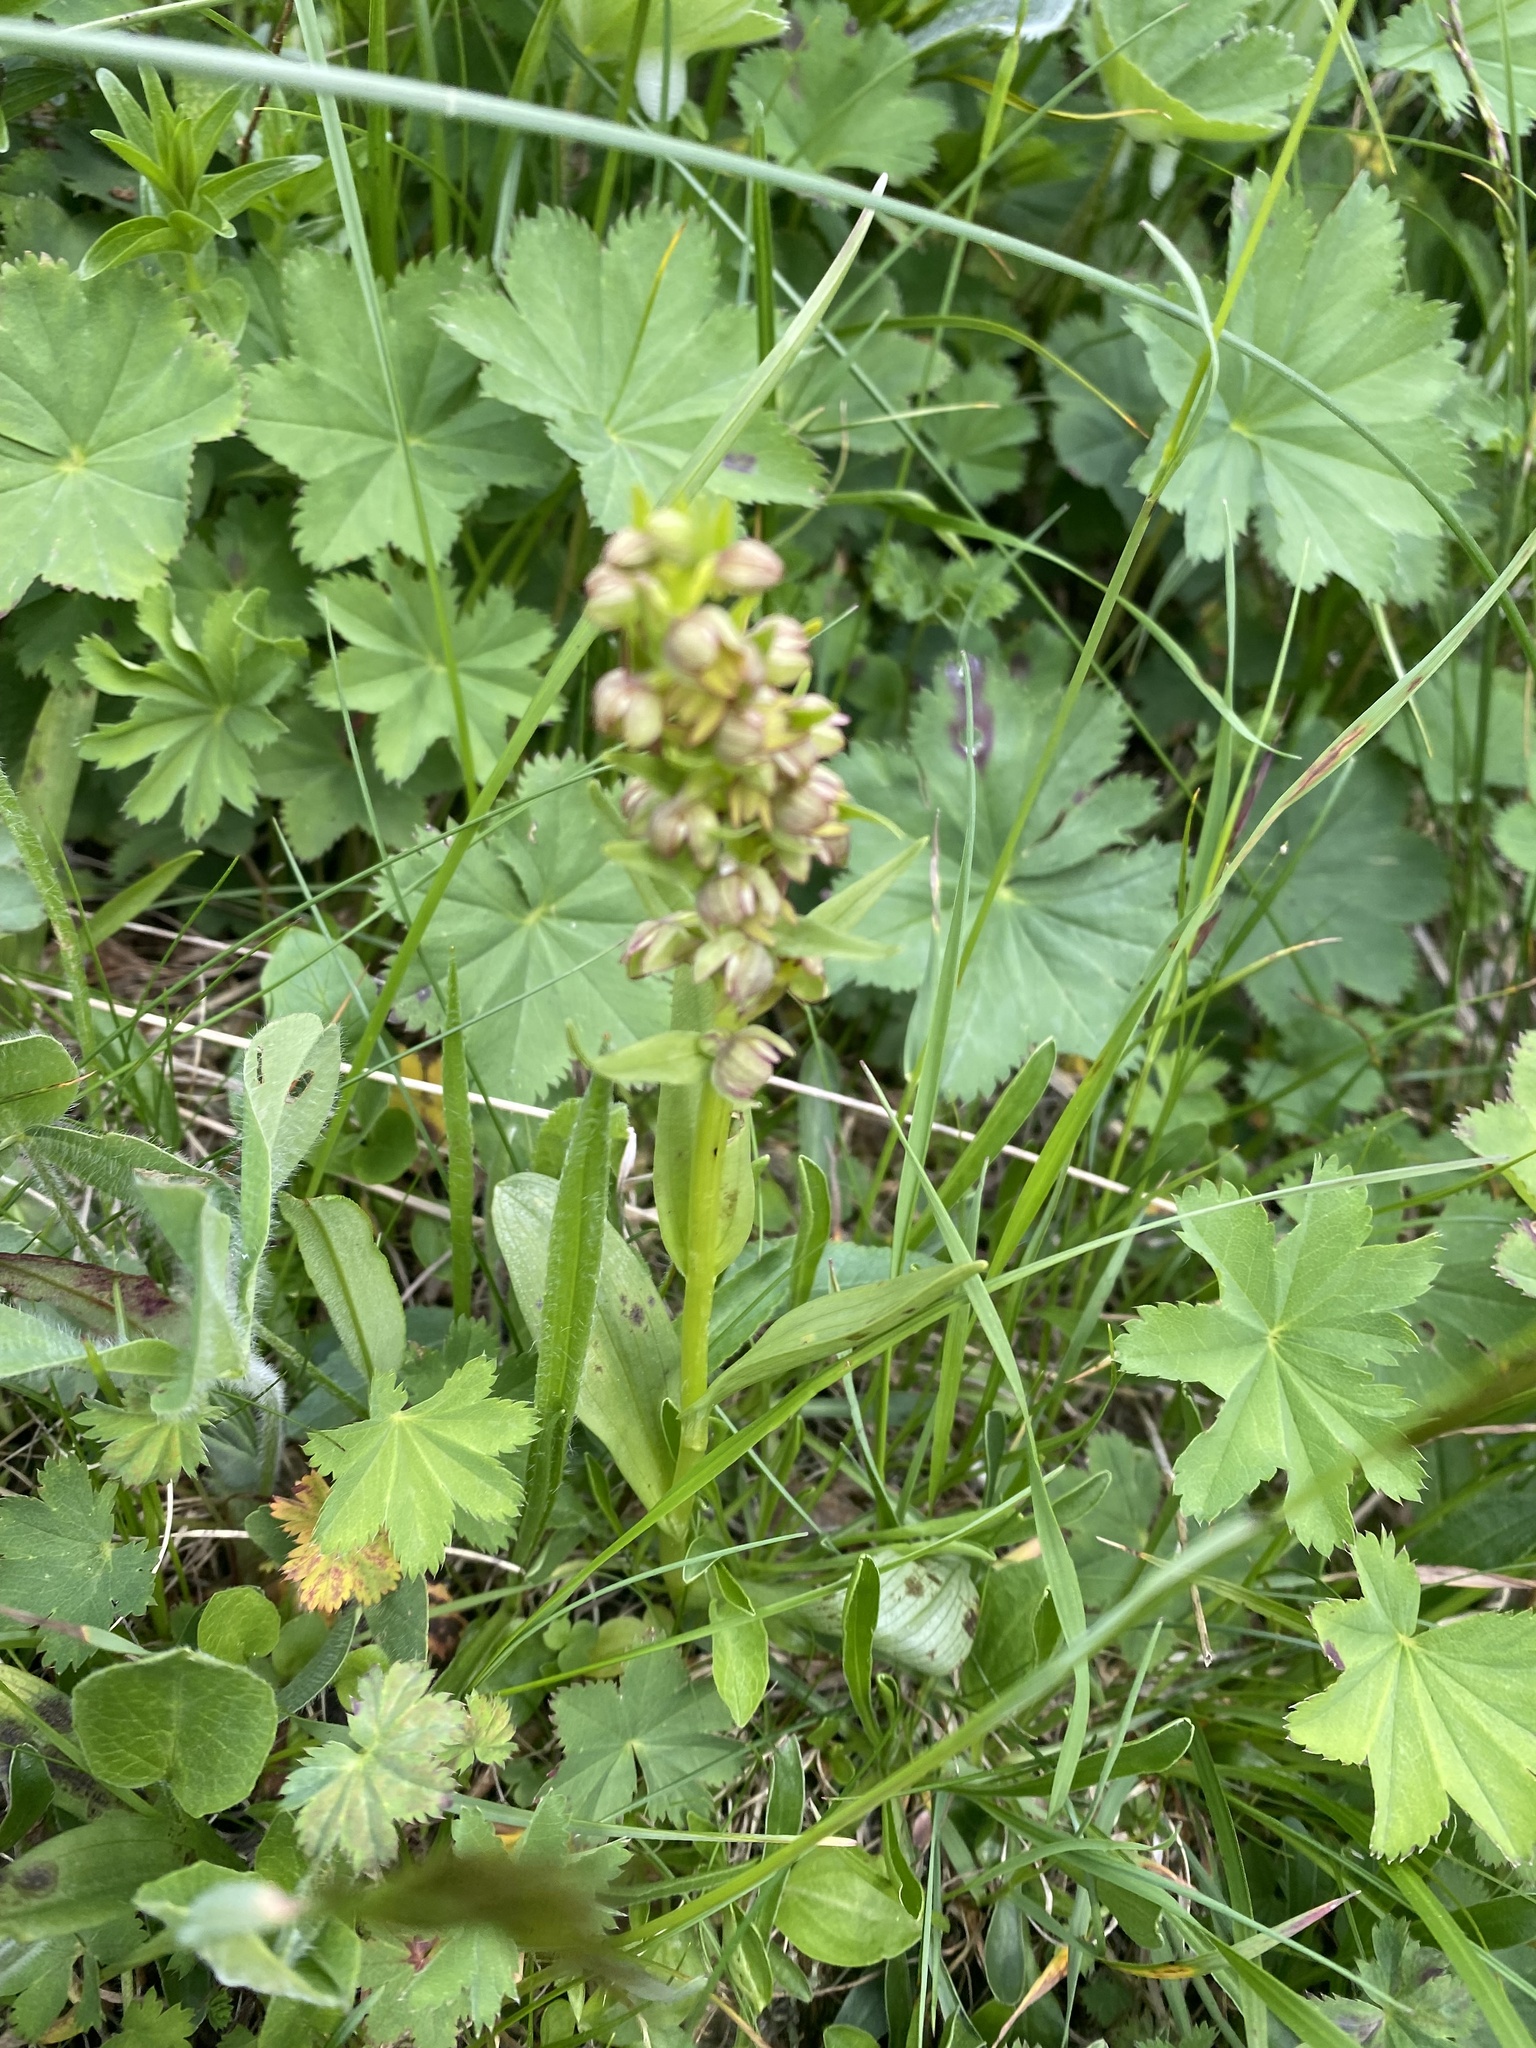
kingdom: Plantae
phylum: Tracheophyta
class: Liliopsida
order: Asparagales
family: Orchidaceae
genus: Dactylorhiza
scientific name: Dactylorhiza viridis
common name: Longbract frog orchid
